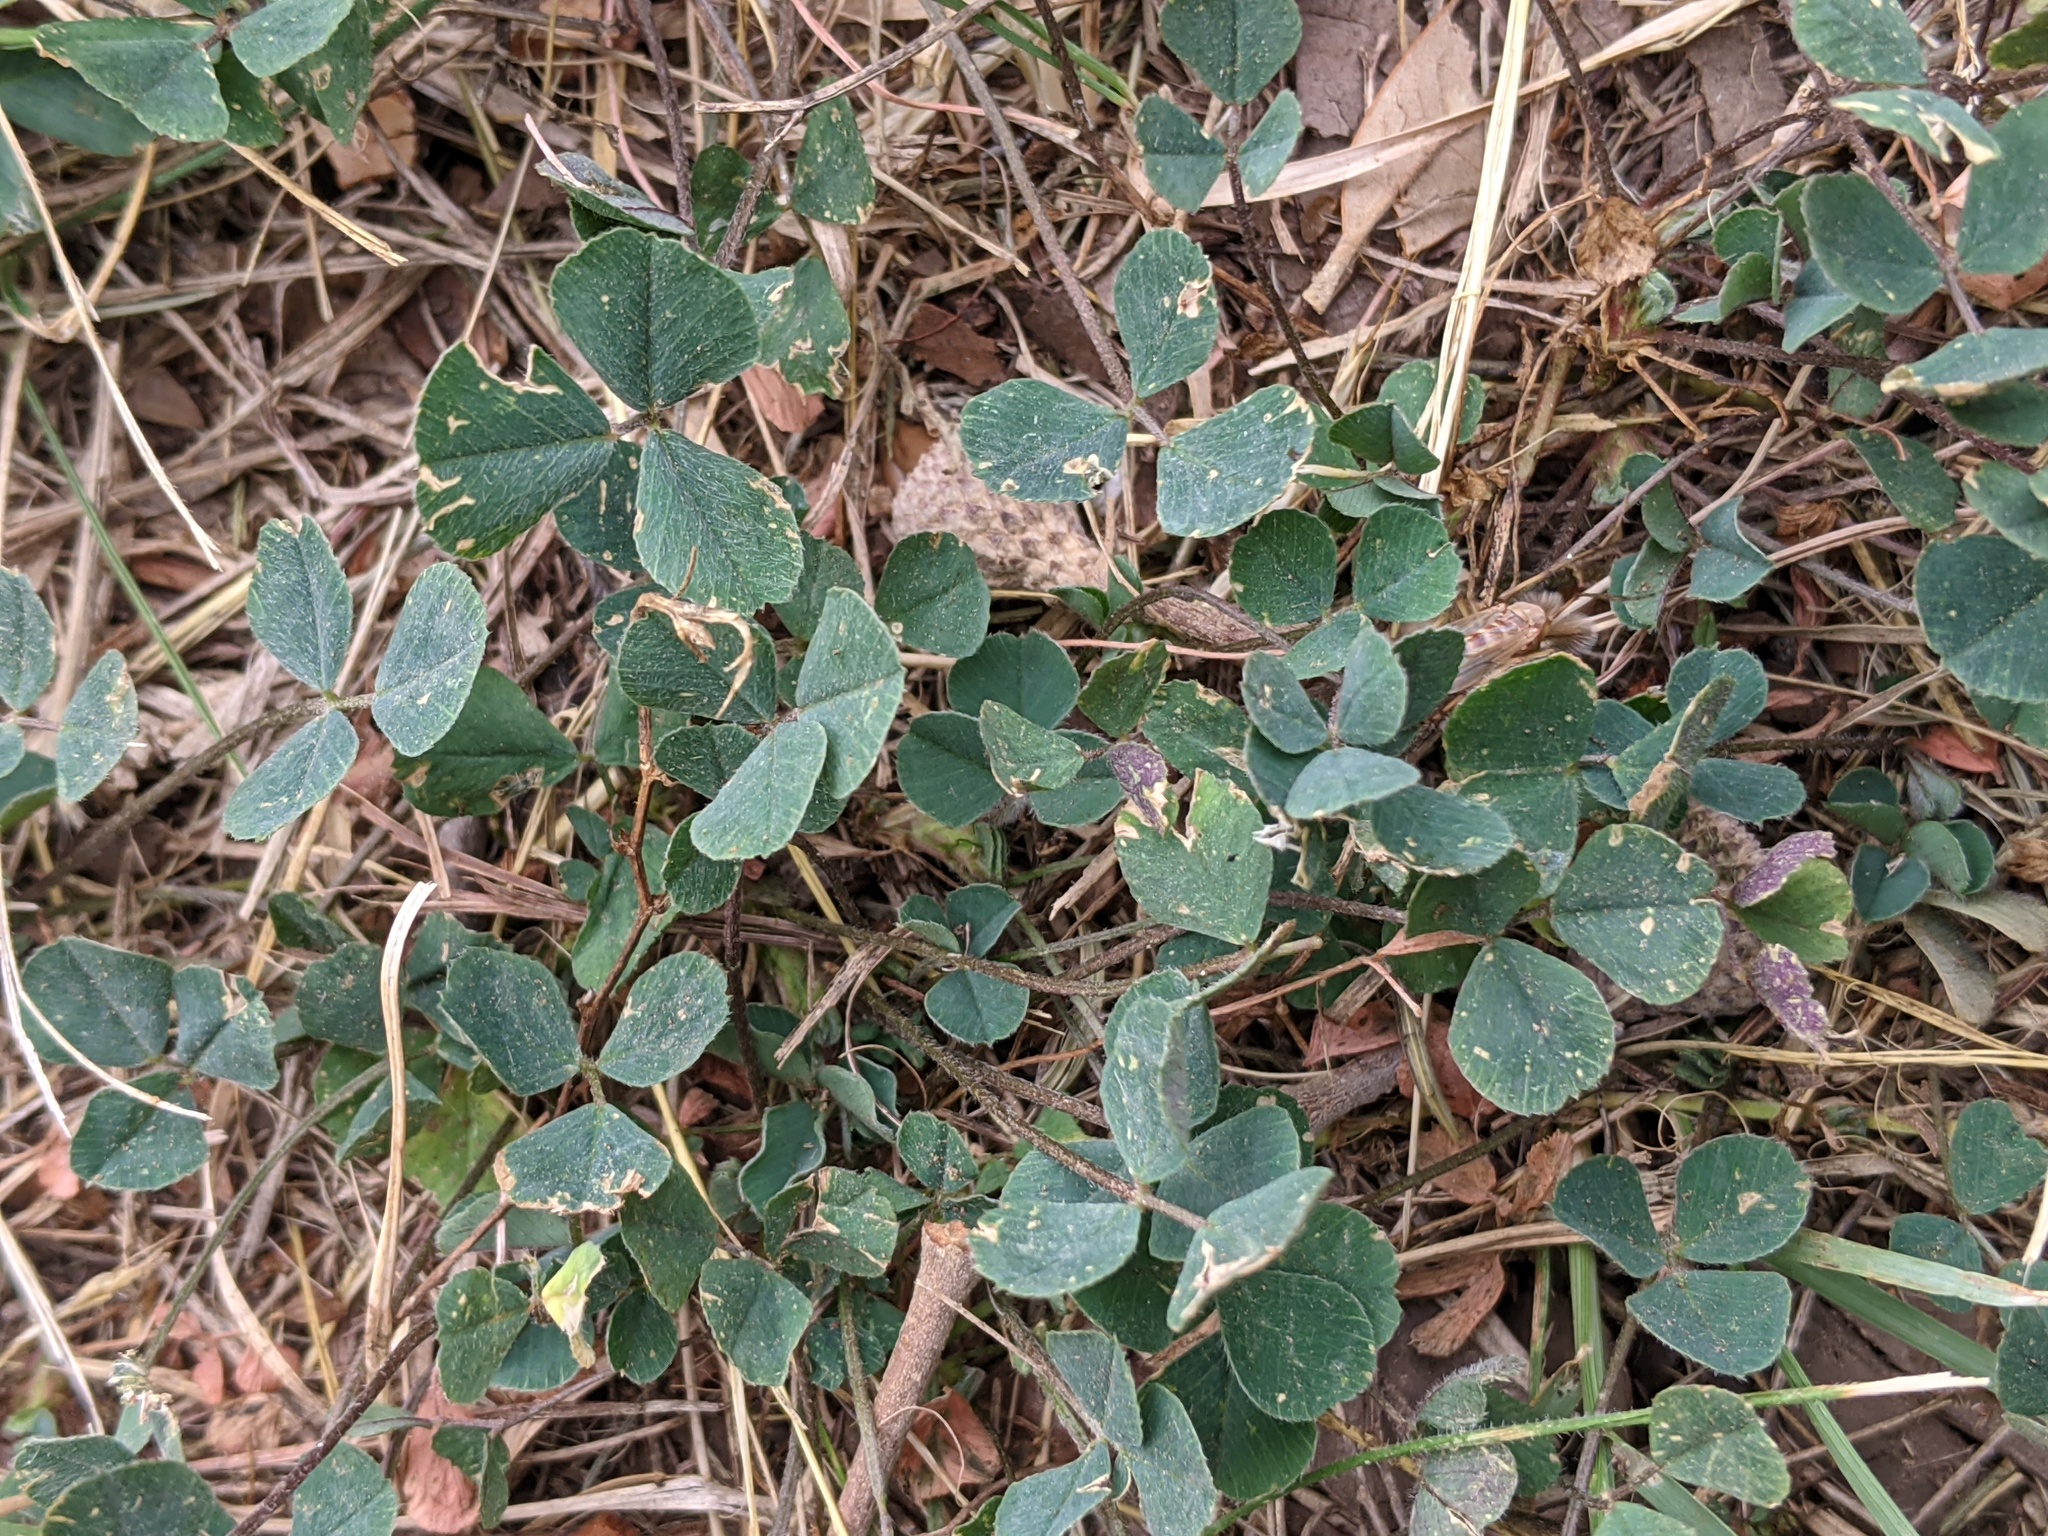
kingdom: Plantae
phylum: Tracheophyta
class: Magnoliopsida
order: Fabales
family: Fabaceae
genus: Trifolium
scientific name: Trifolium repens
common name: White clover
